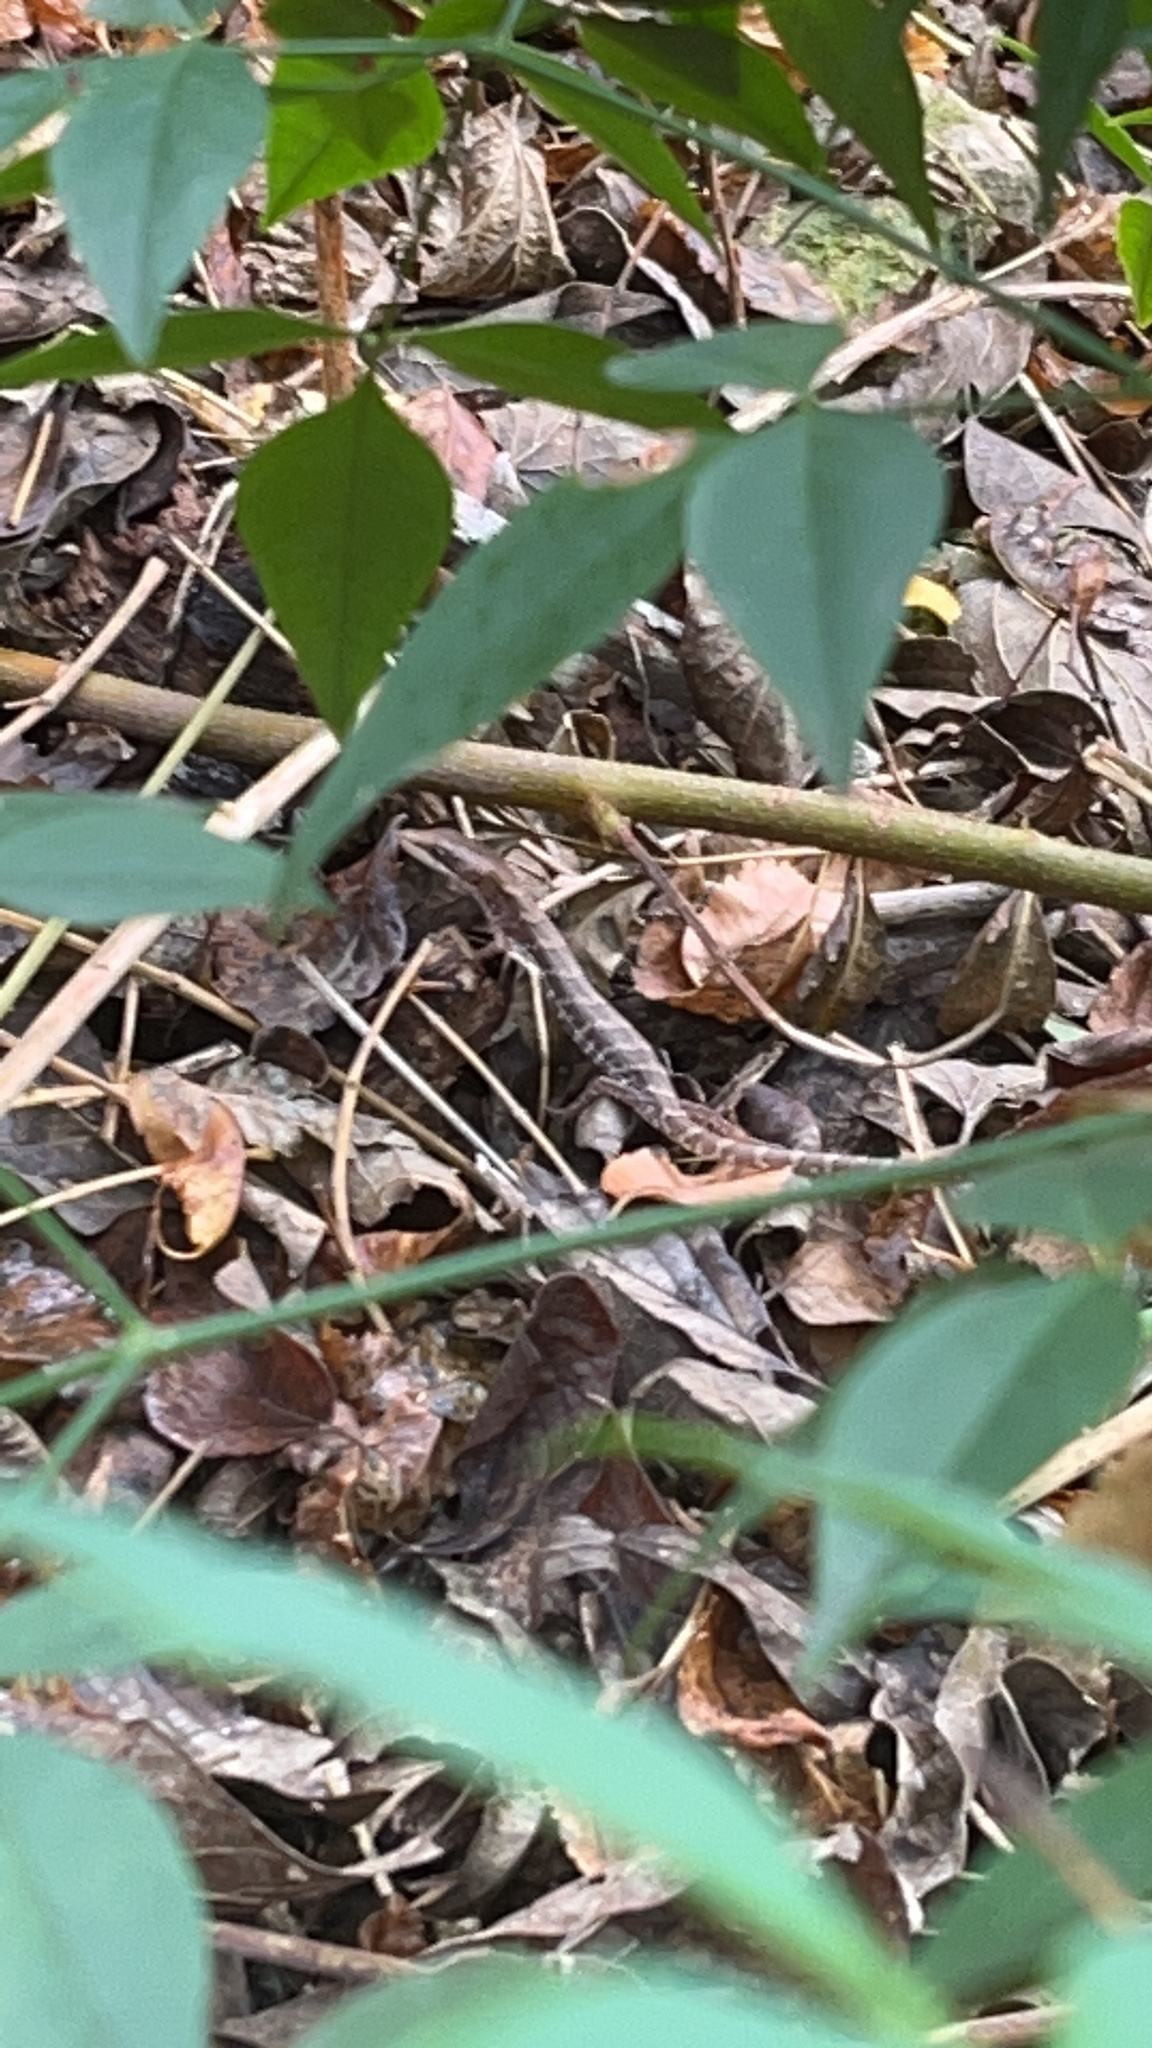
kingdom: Animalia
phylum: Chordata
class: Squamata
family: Anguidae
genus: Gerrhonotus
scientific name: Gerrhonotus infernalis
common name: Texas alligator lizard
